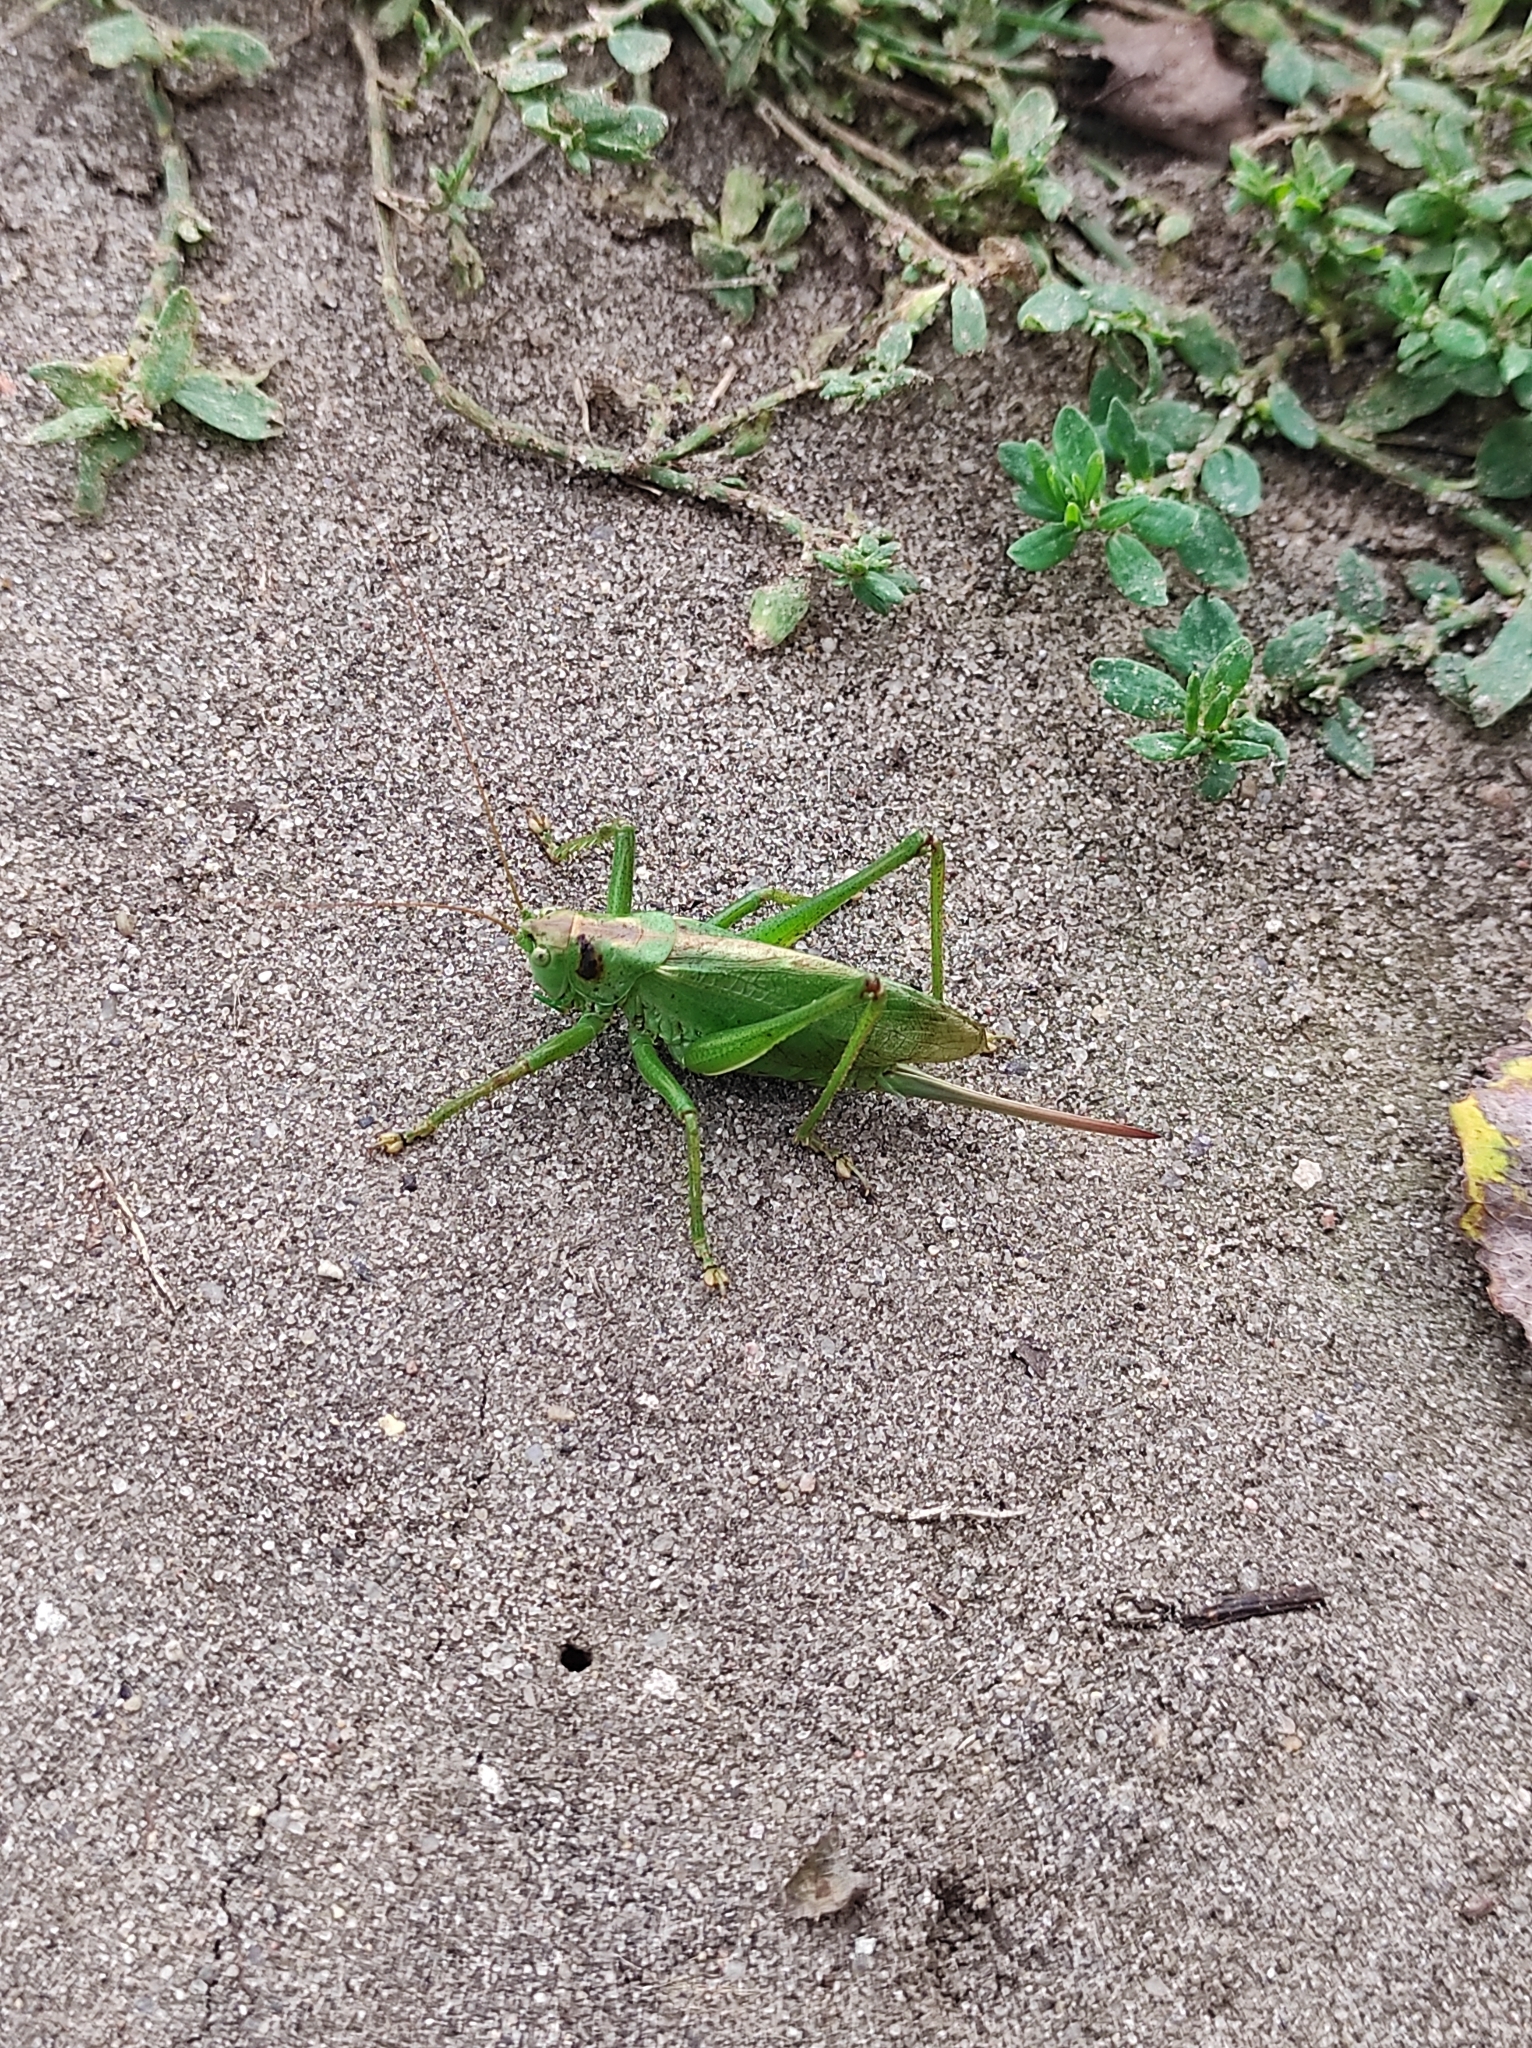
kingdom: Animalia
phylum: Arthropoda
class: Insecta
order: Orthoptera
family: Tettigoniidae
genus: Tettigonia
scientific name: Tettigonia cantans
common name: Upland green bush-cricket
